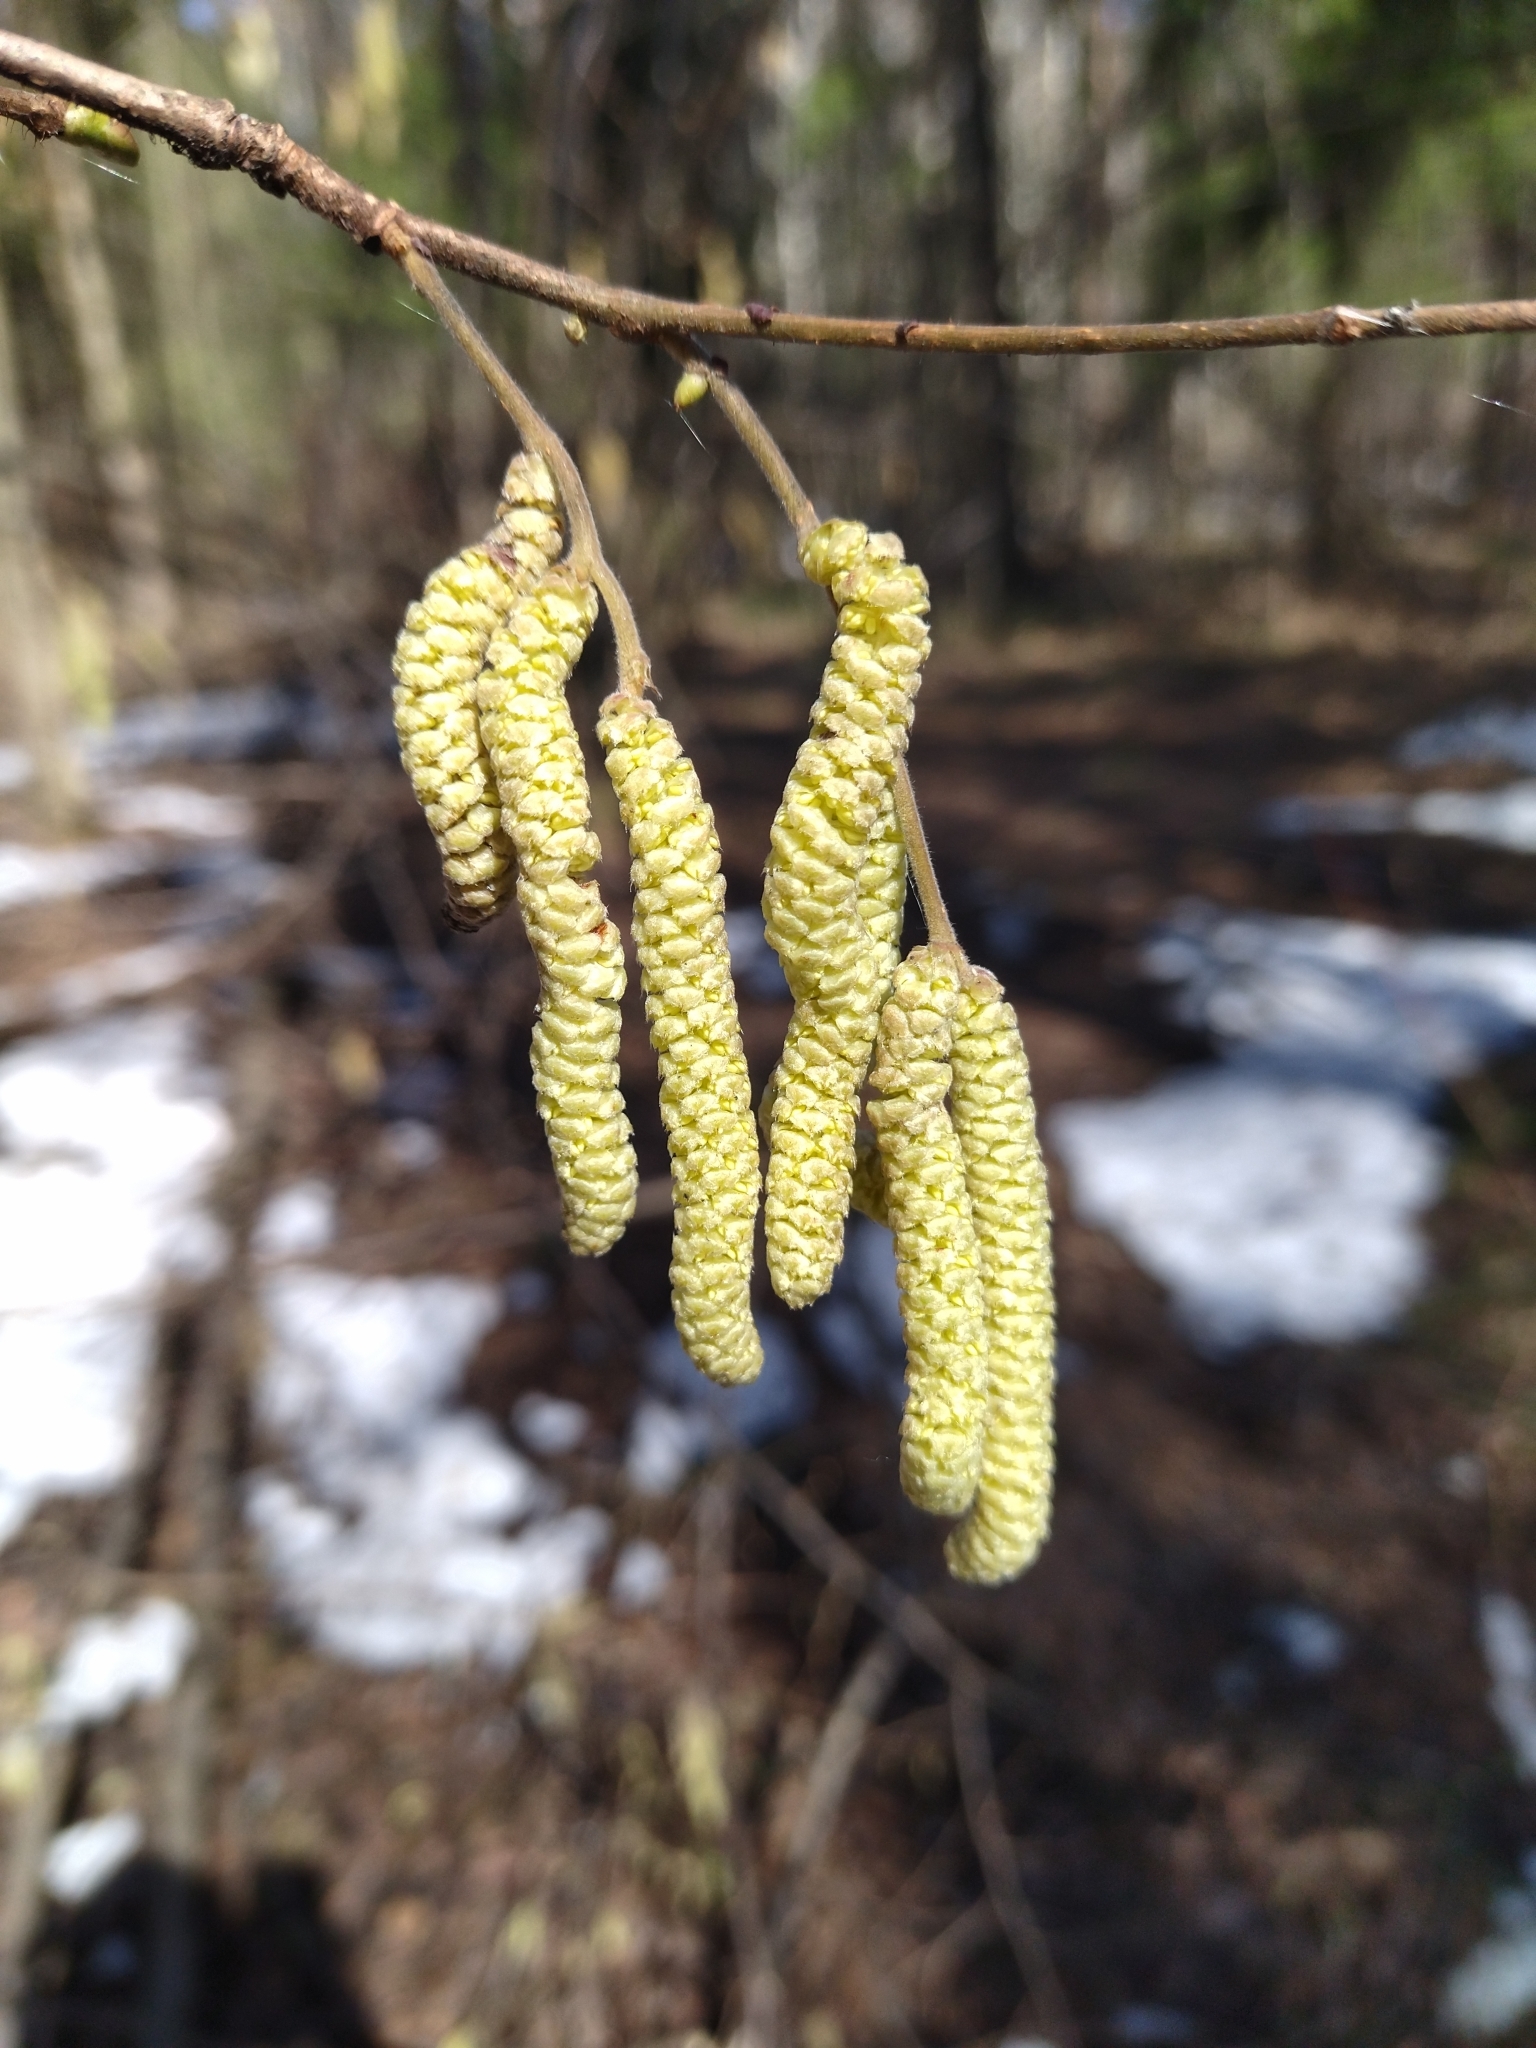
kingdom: Plantae
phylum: Tracheophyta
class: Magnoliopsida
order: Fagales
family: Betulaceae
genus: Corylus
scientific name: Corylus avellana
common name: European hazel
